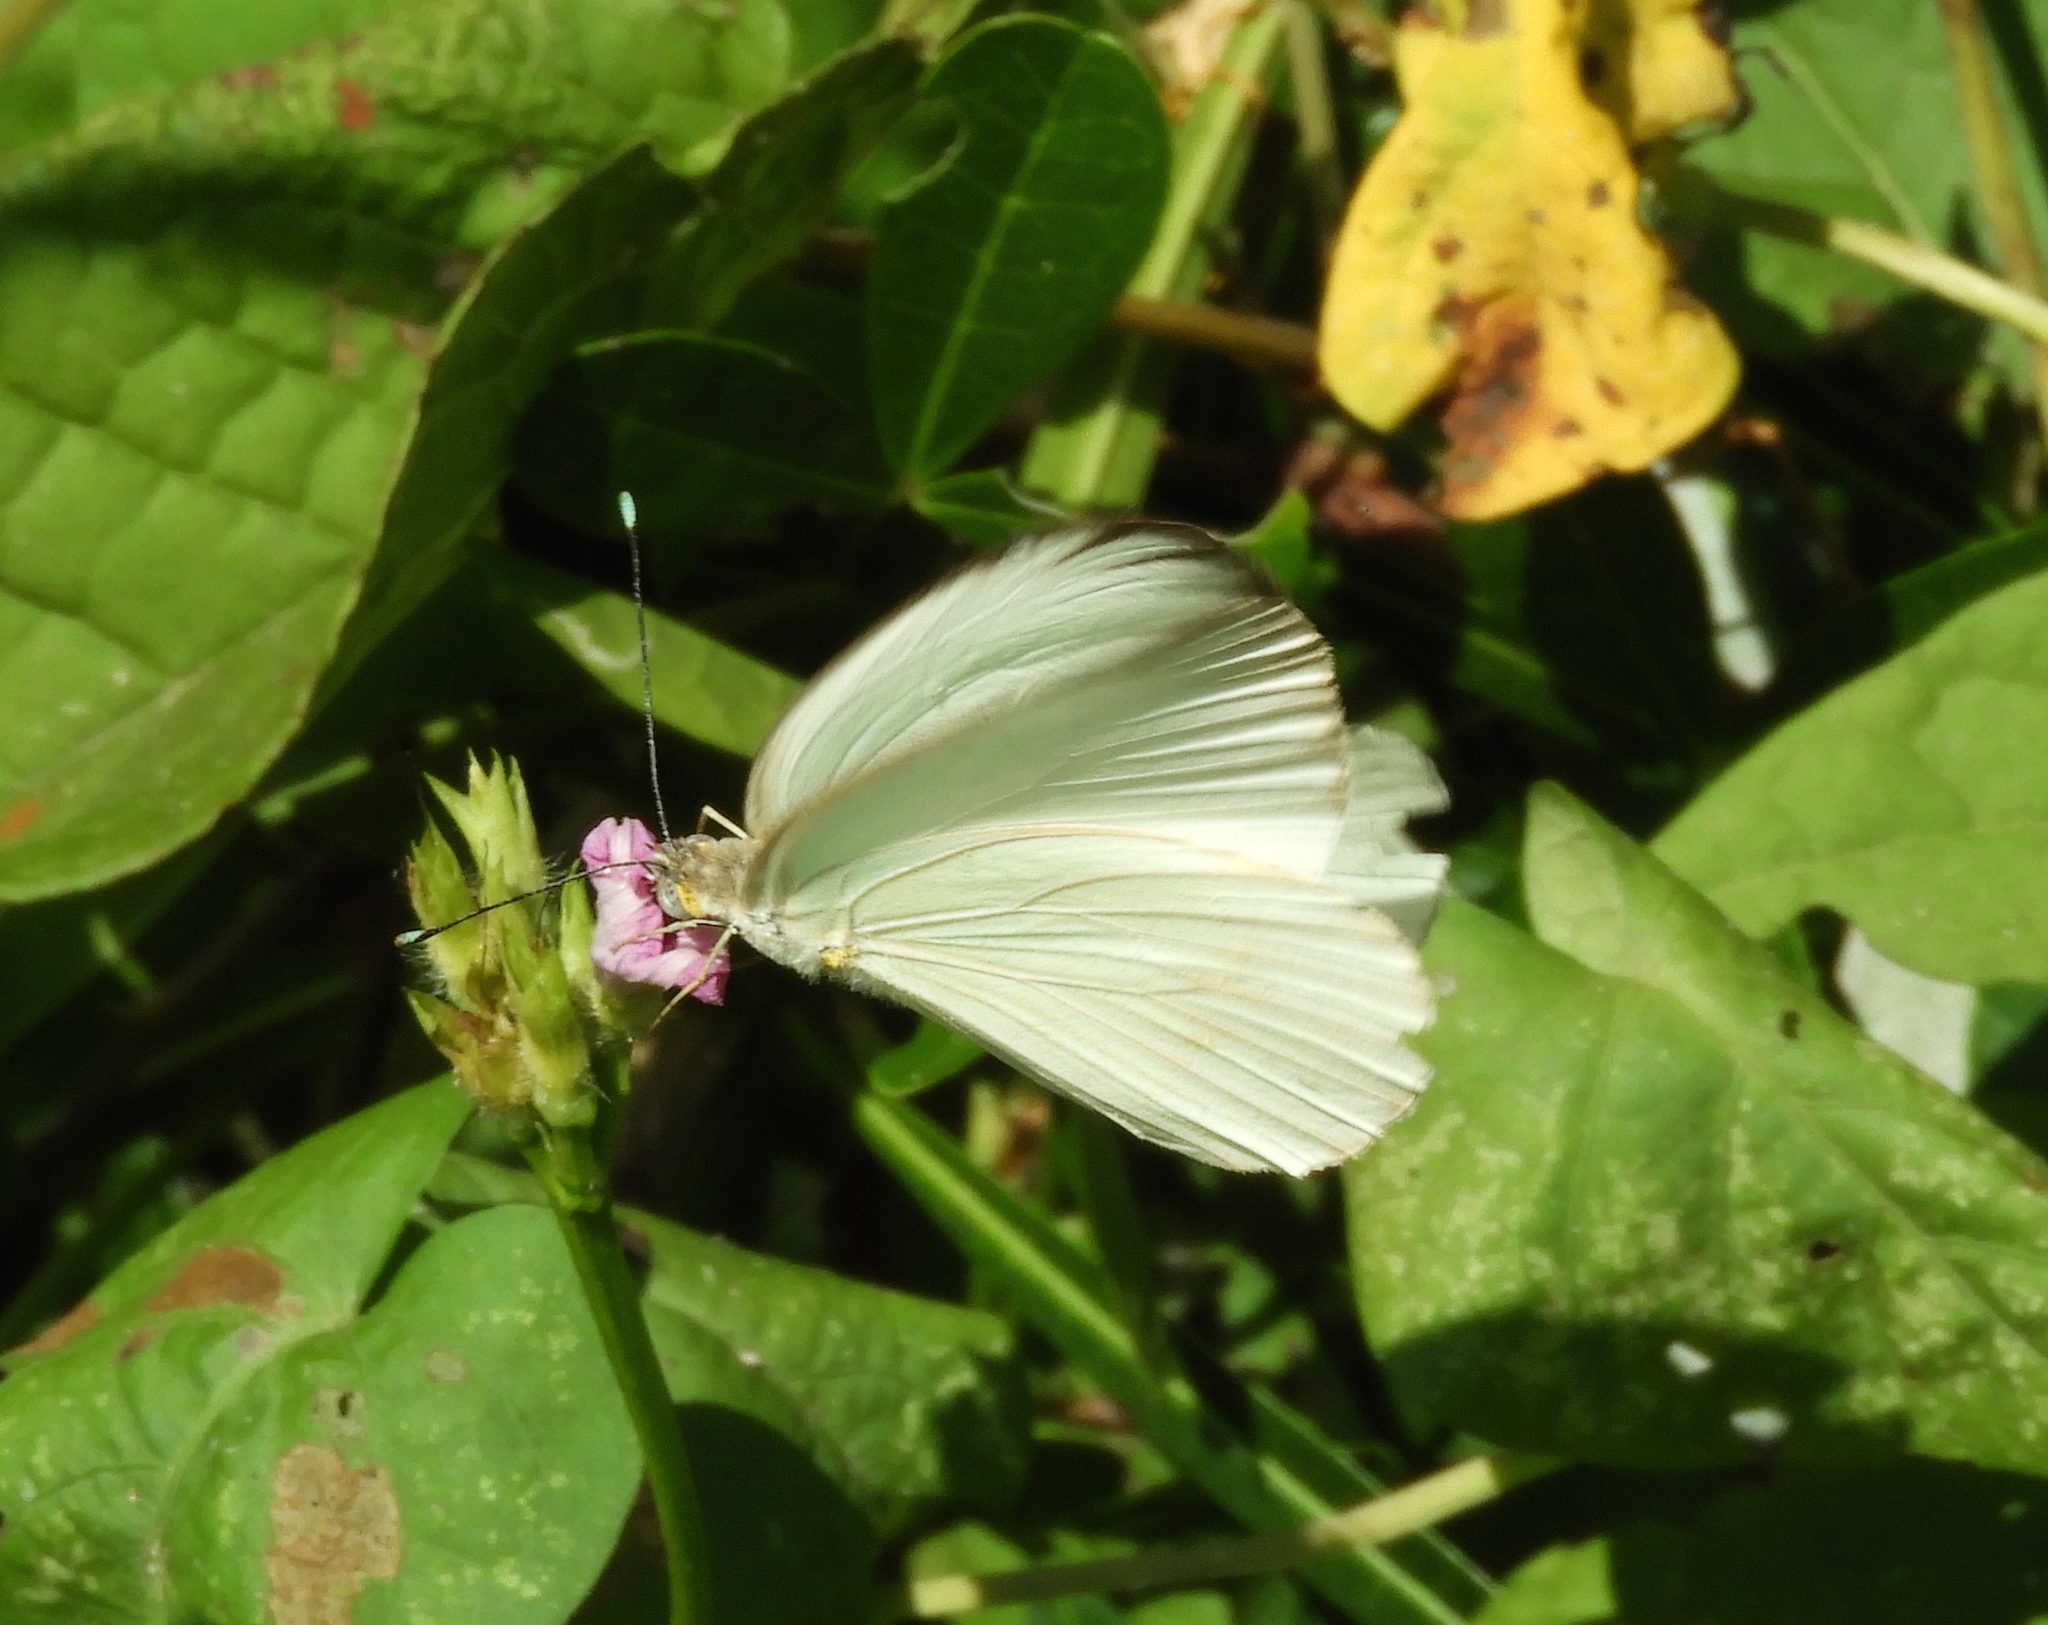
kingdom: Animalia
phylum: Arthropoda
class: Insecta
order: Lepidoptera
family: Pieridae
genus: Ascia
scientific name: Ascia monuste
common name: Great southern white
